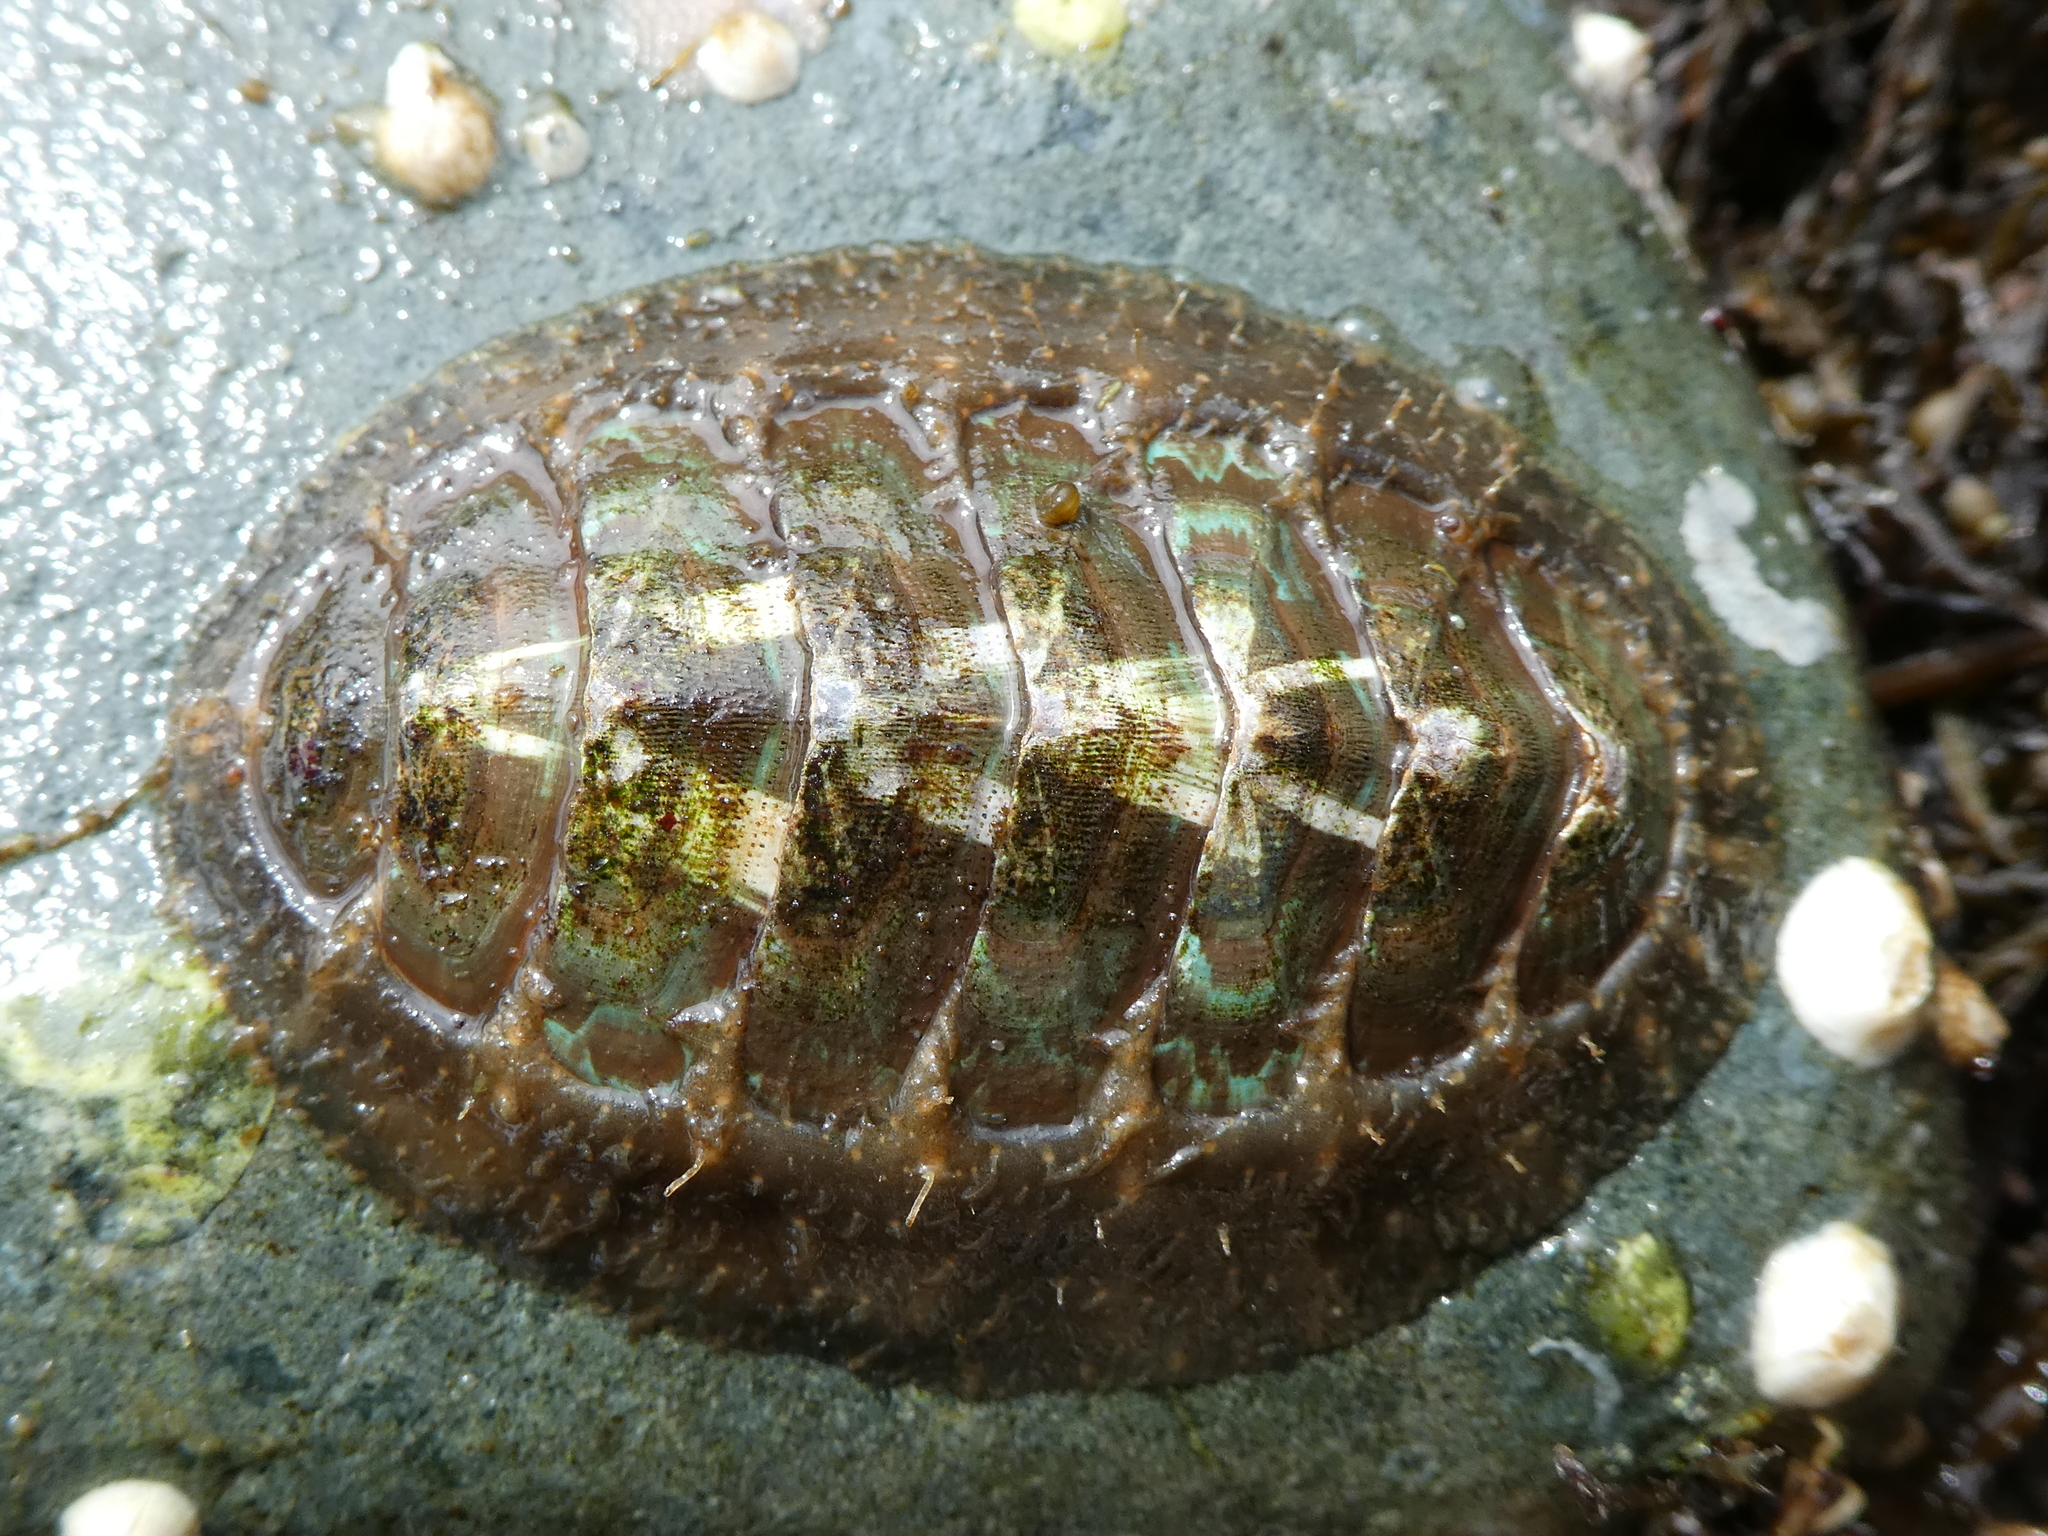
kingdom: Animalia
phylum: Mollusca
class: Polyplacophora
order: Chitonida
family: Mopaliidae
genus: Mopalia
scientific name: Mopalia vespertina
